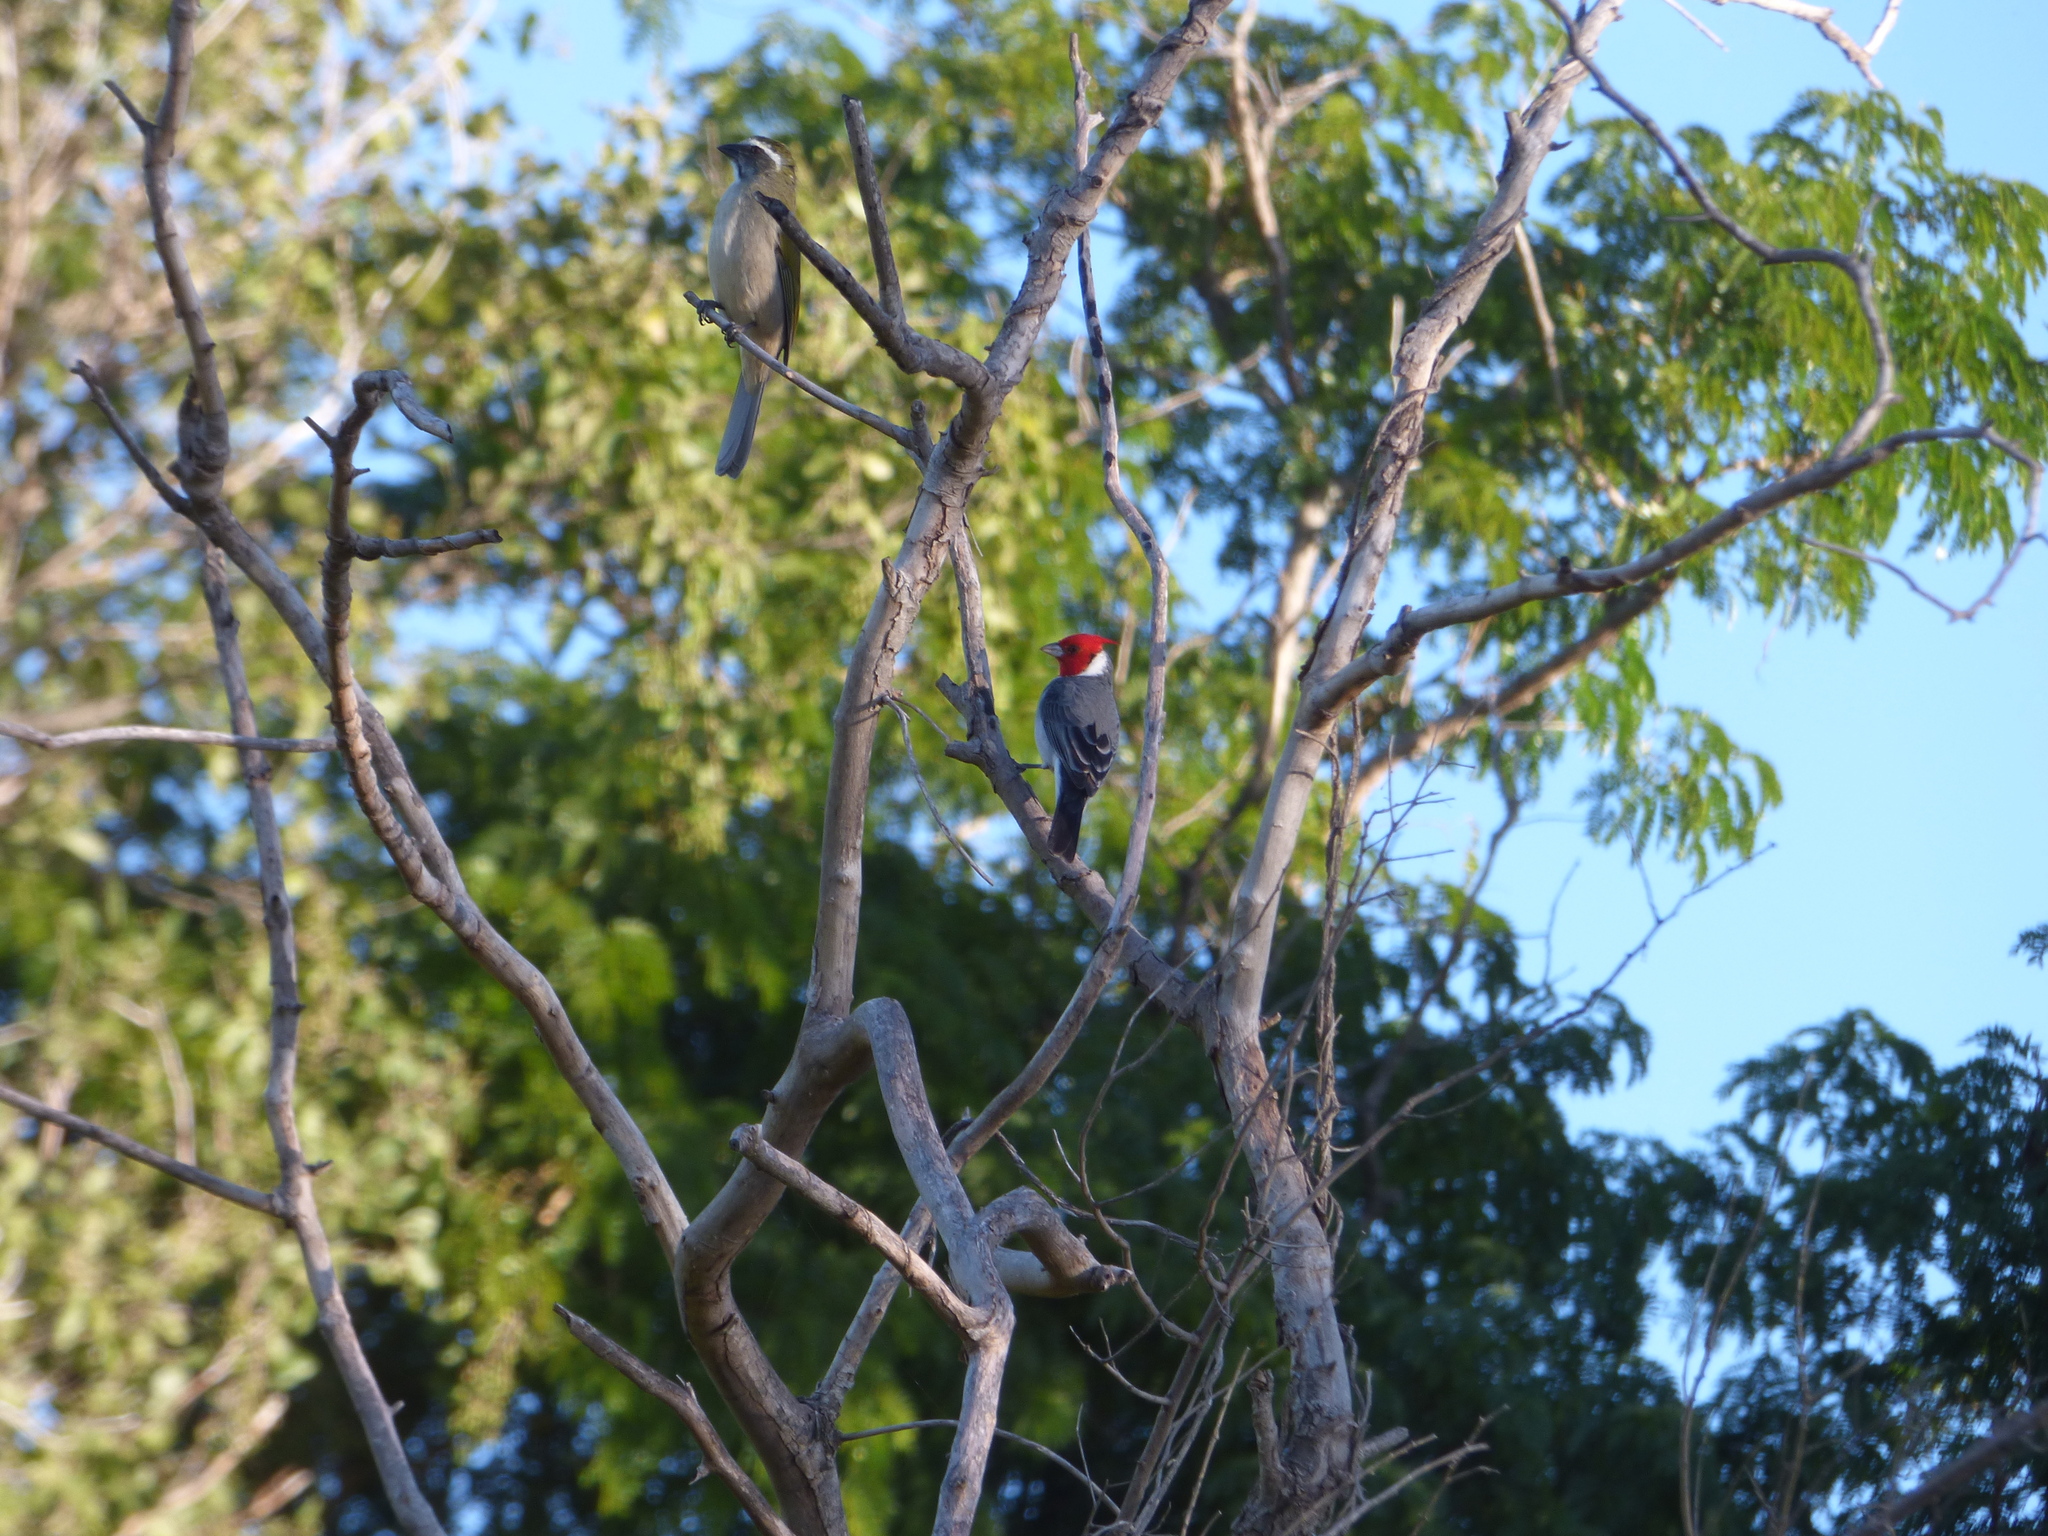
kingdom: Animalia
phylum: Chordata
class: Aves
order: Passeriformes
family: Thraupidae
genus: Paroaria
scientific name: Paroaria coronata
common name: Red-crested cardinal
